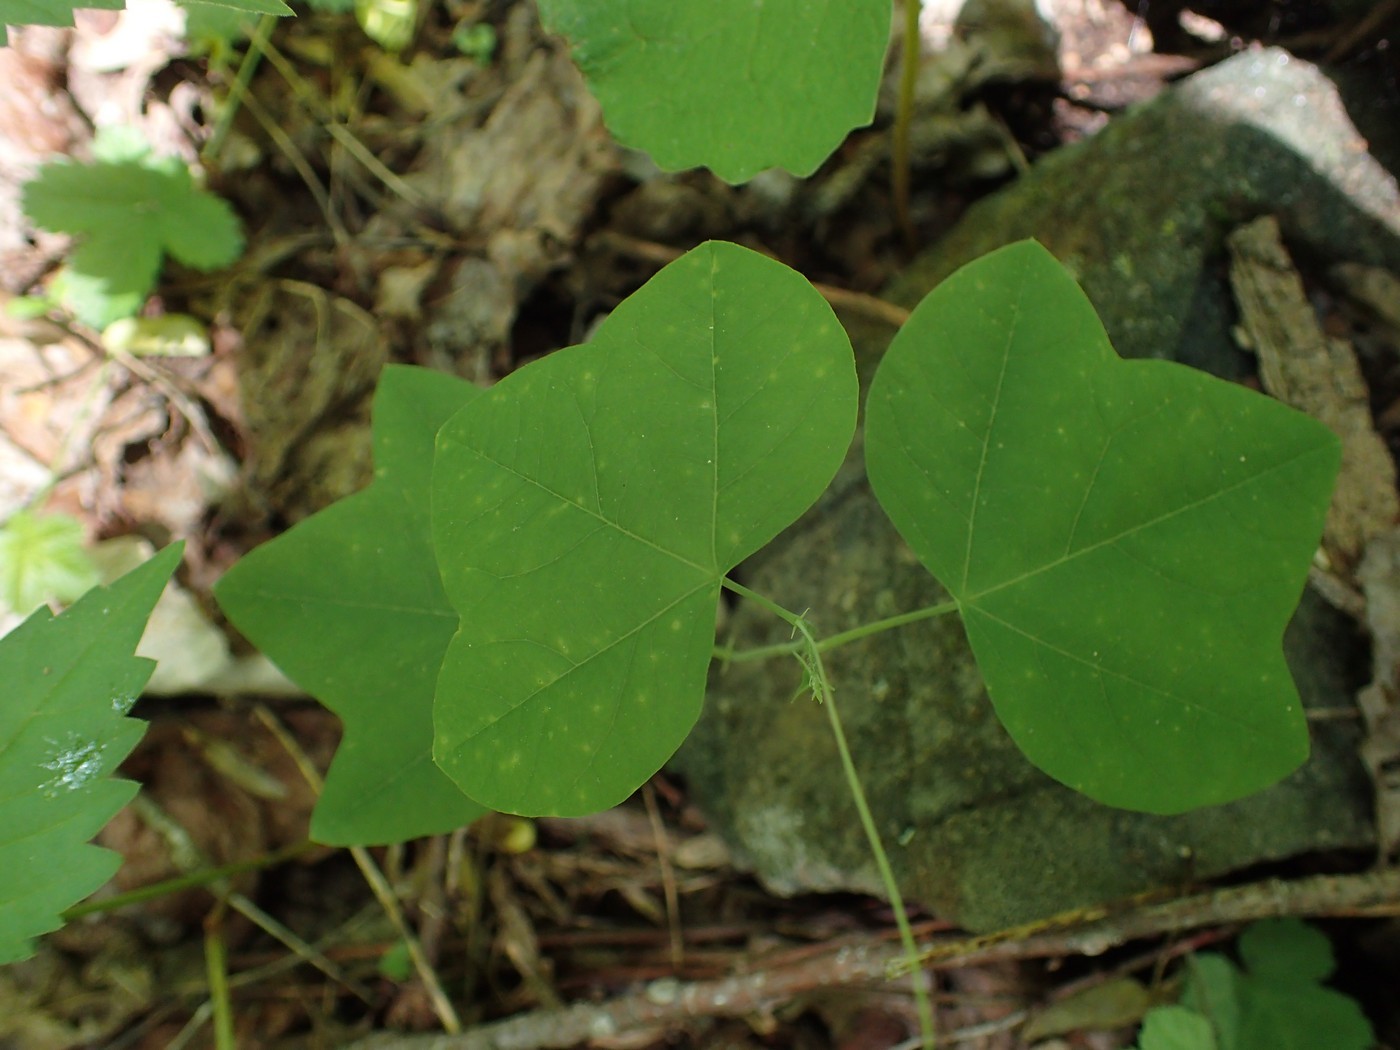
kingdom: Plantae
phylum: Tracheophyta
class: Magnoliopsida
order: Malpighiales
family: Passifloraceae
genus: Passiflora
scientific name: Passiflora lutea
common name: Yellow passionflower
